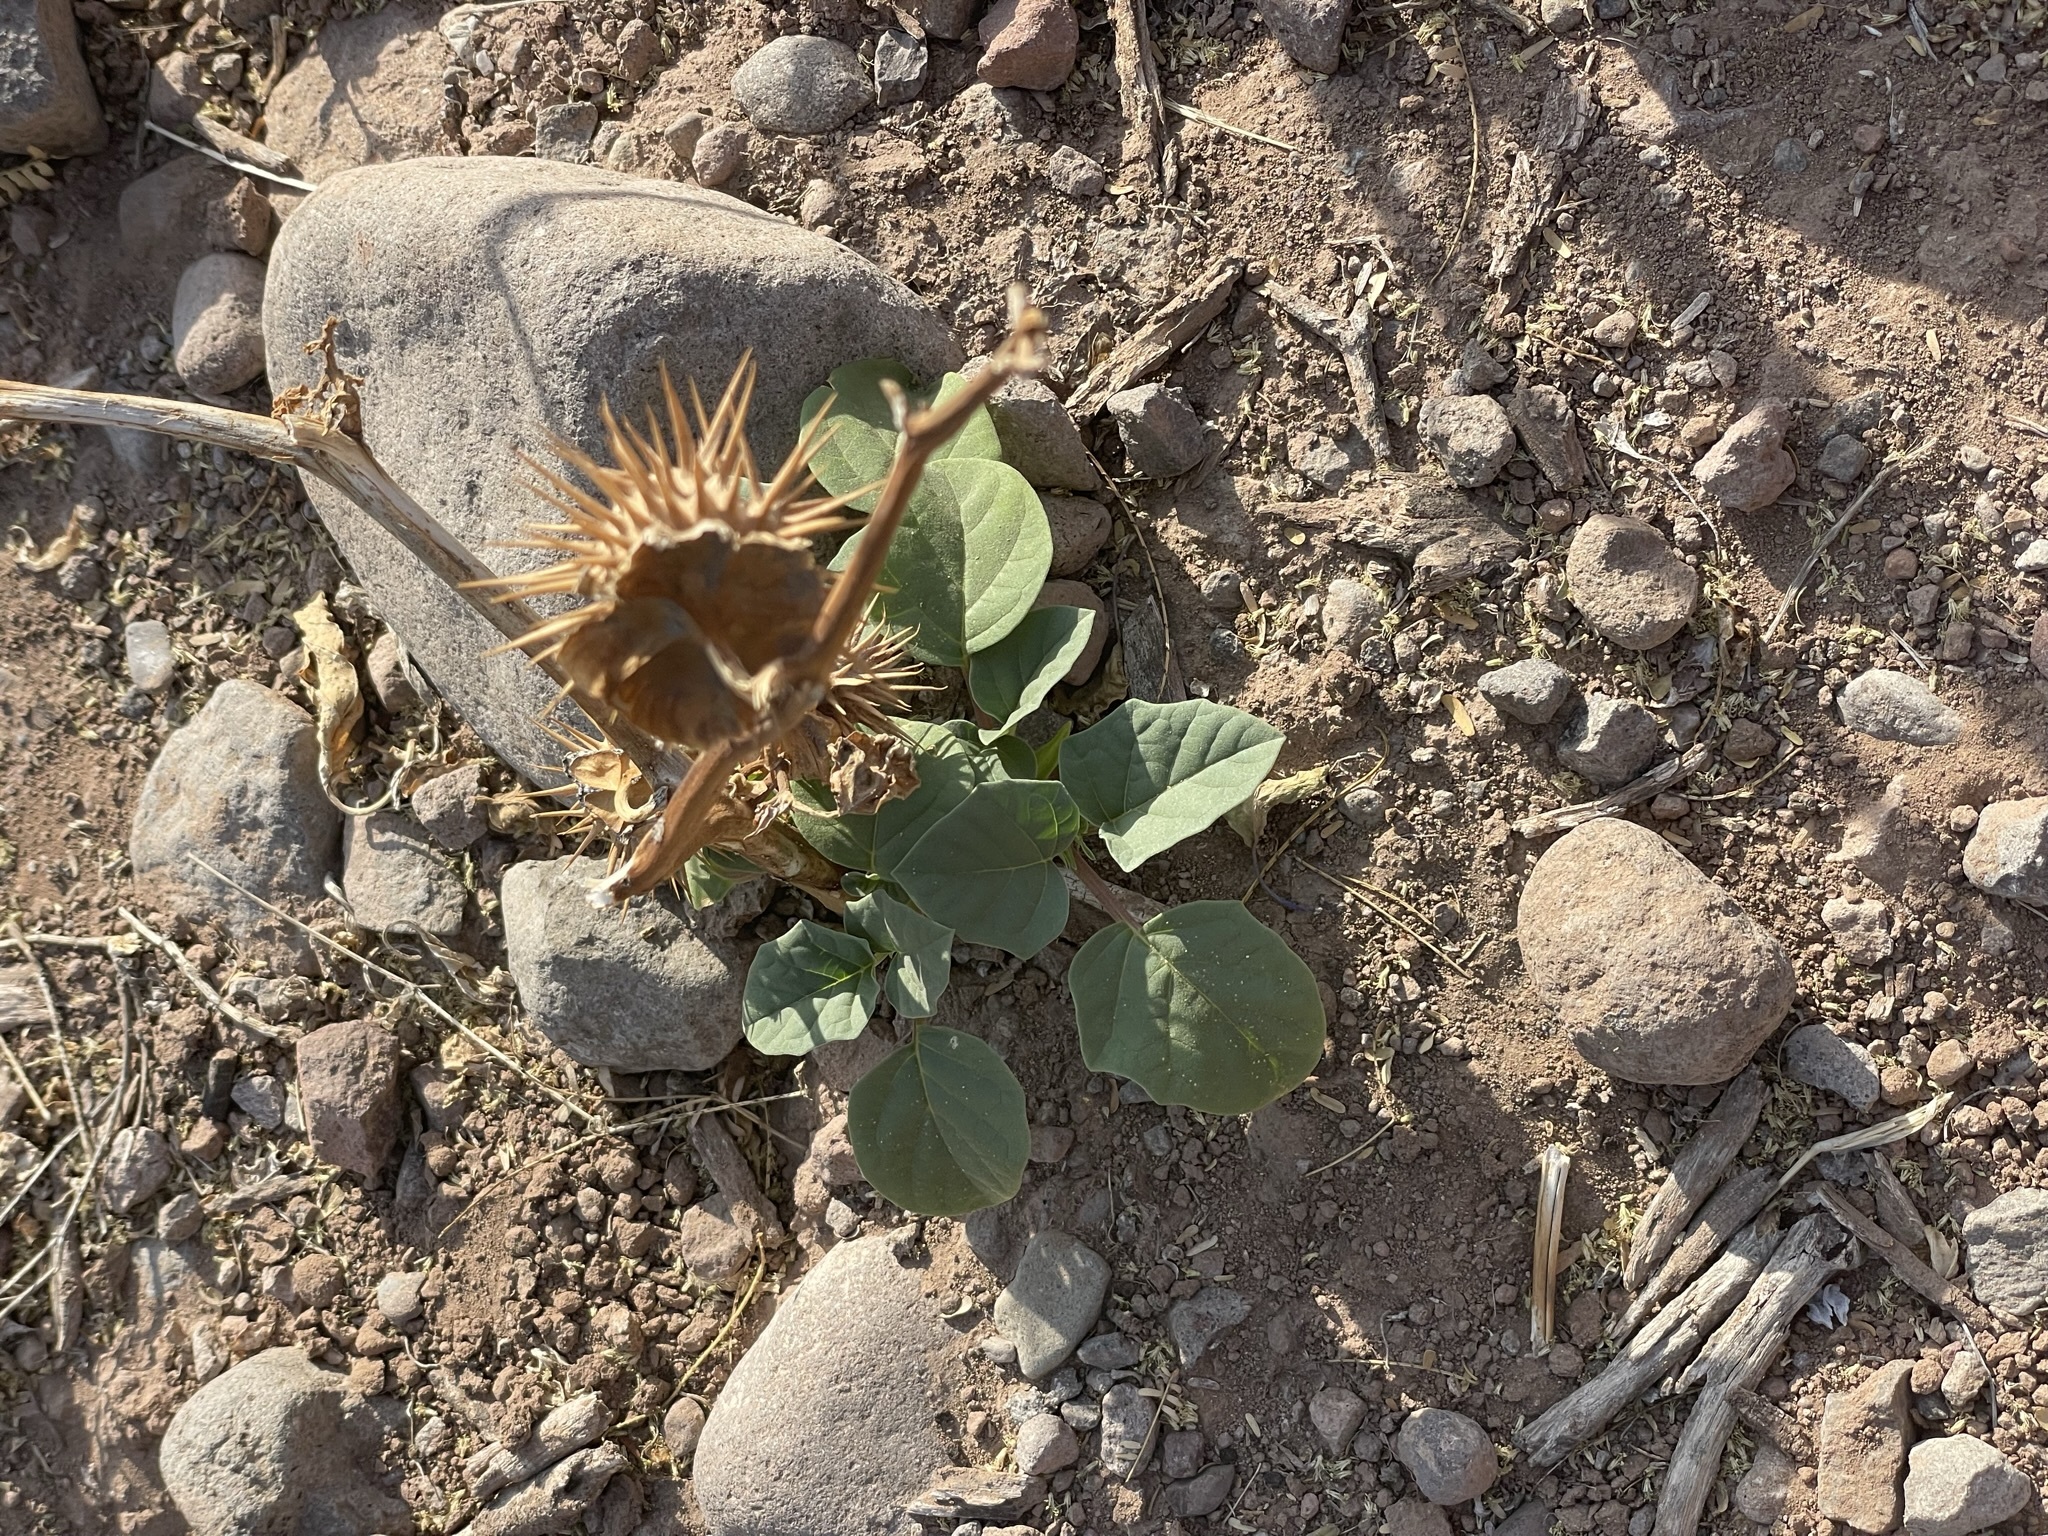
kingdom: Plantae
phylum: Tracheophyta
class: Magnoliopsida
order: Solanales
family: Solanaceae
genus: Datura
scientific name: Datura discolor
